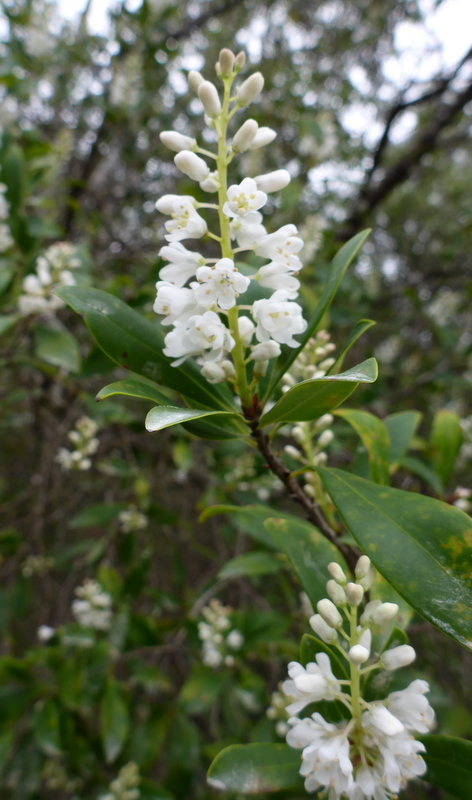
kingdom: Plantae
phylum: Tracheophyta
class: Magnoliopsida
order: Ericales
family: Cyrillaceae
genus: Cliftonia
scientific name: Cliftonia monophylla
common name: Titi
